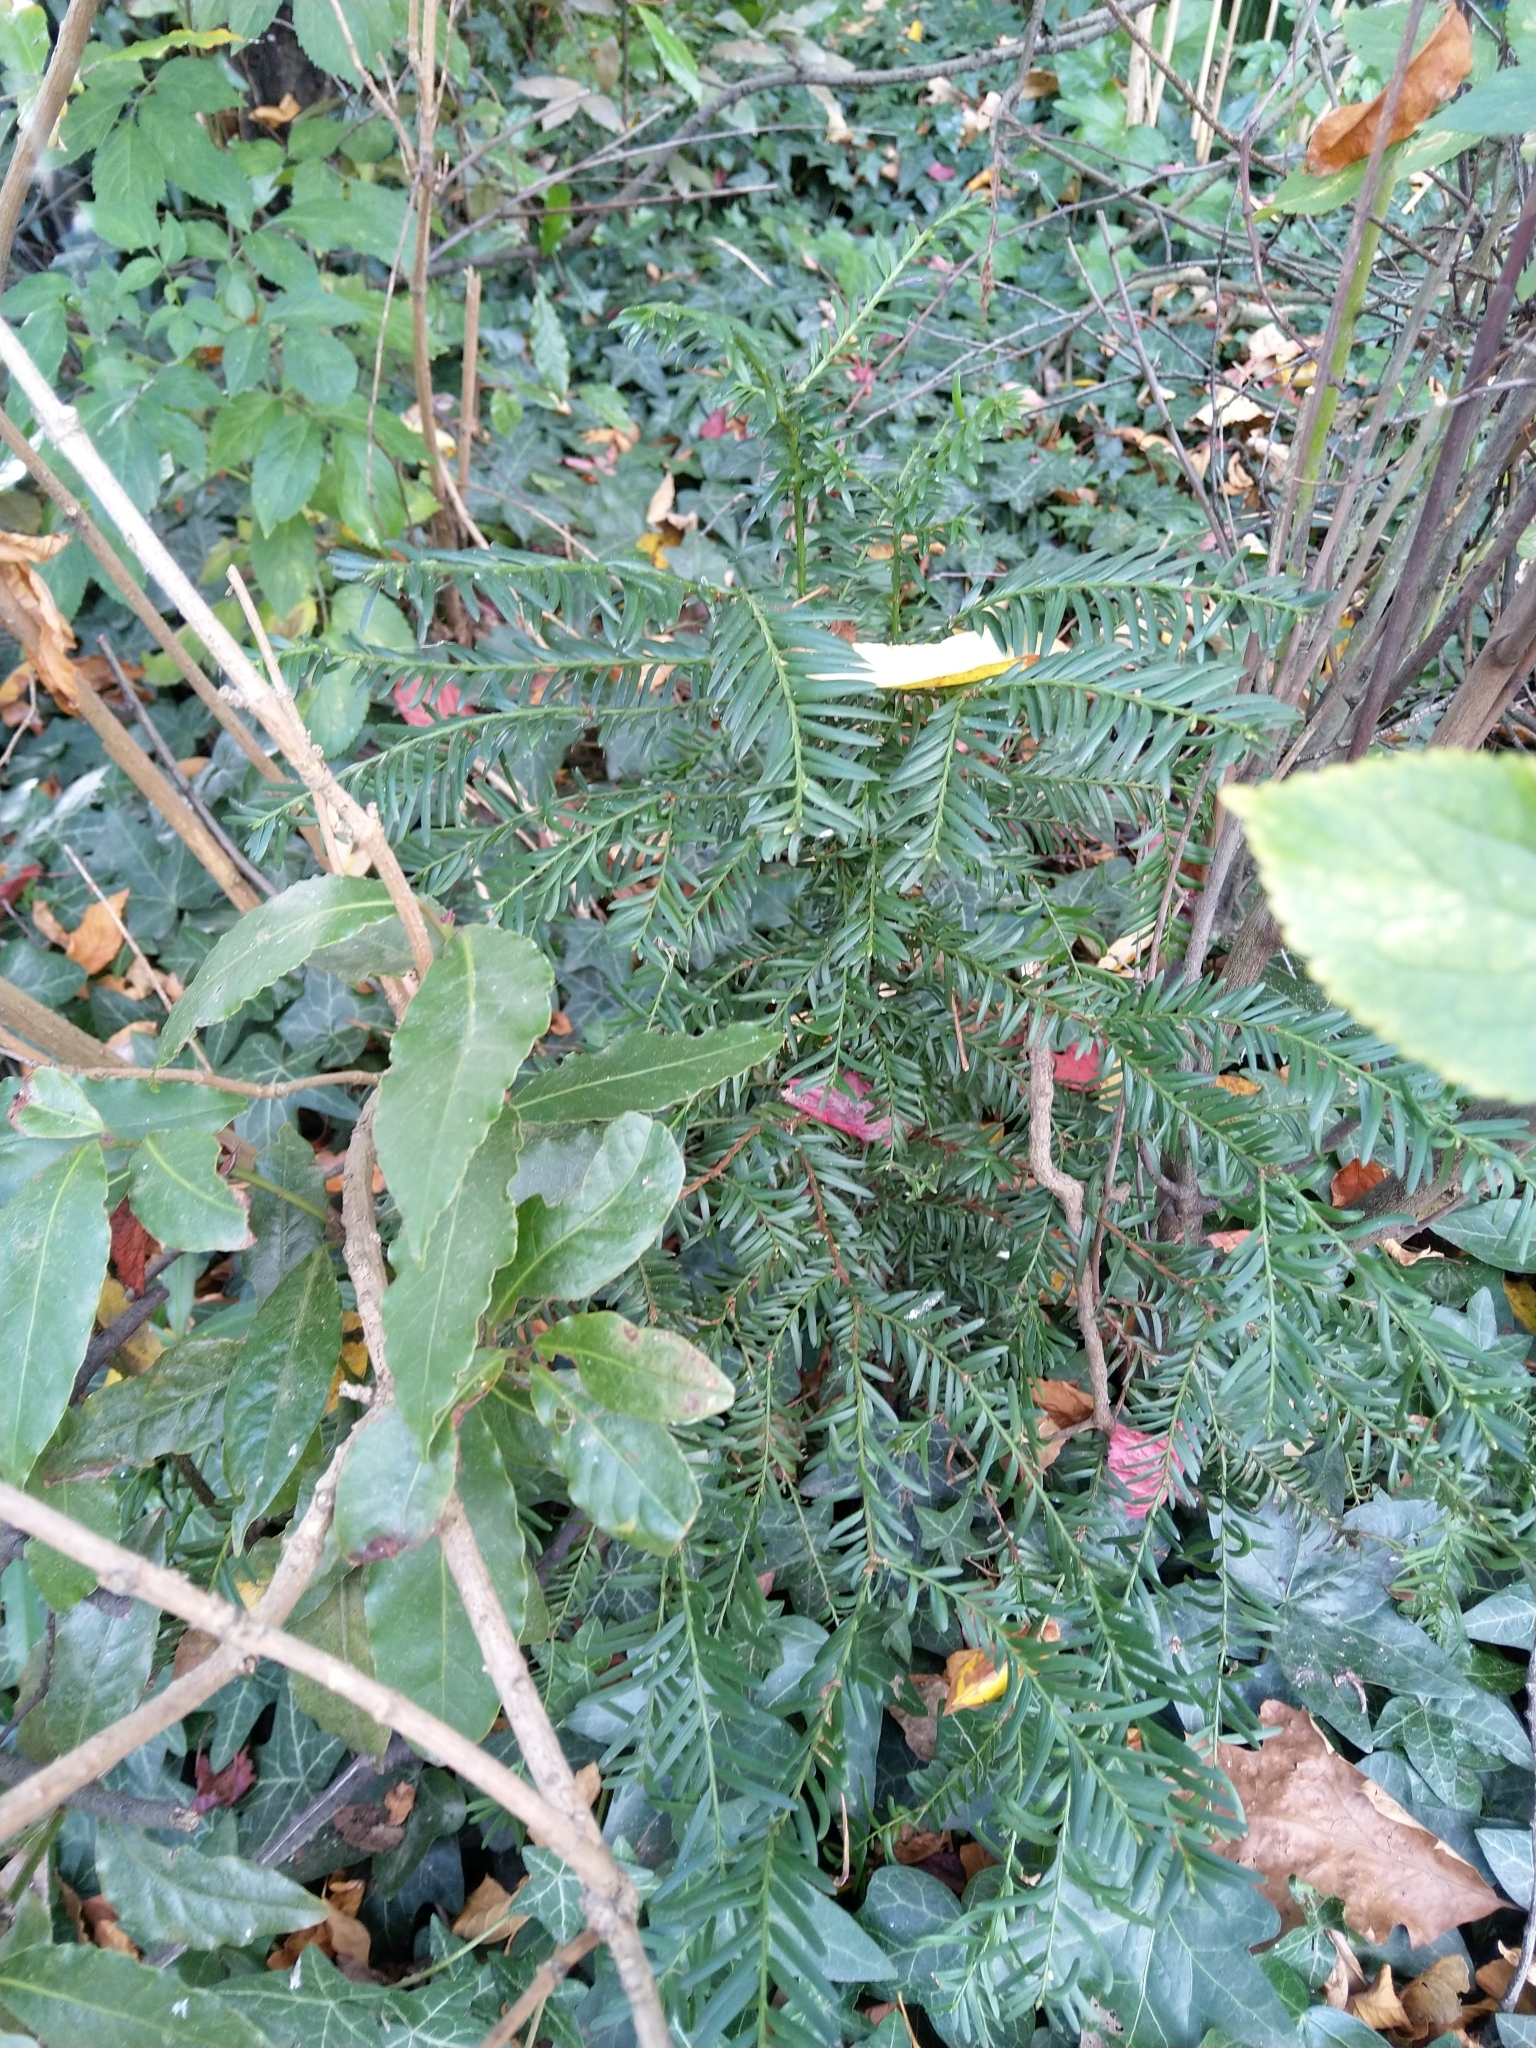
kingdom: Plantae
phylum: Tracheophyta
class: Pinopsida
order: Pinales
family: Taxaceae
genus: Taxus
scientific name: Taxus baccata
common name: Yew
